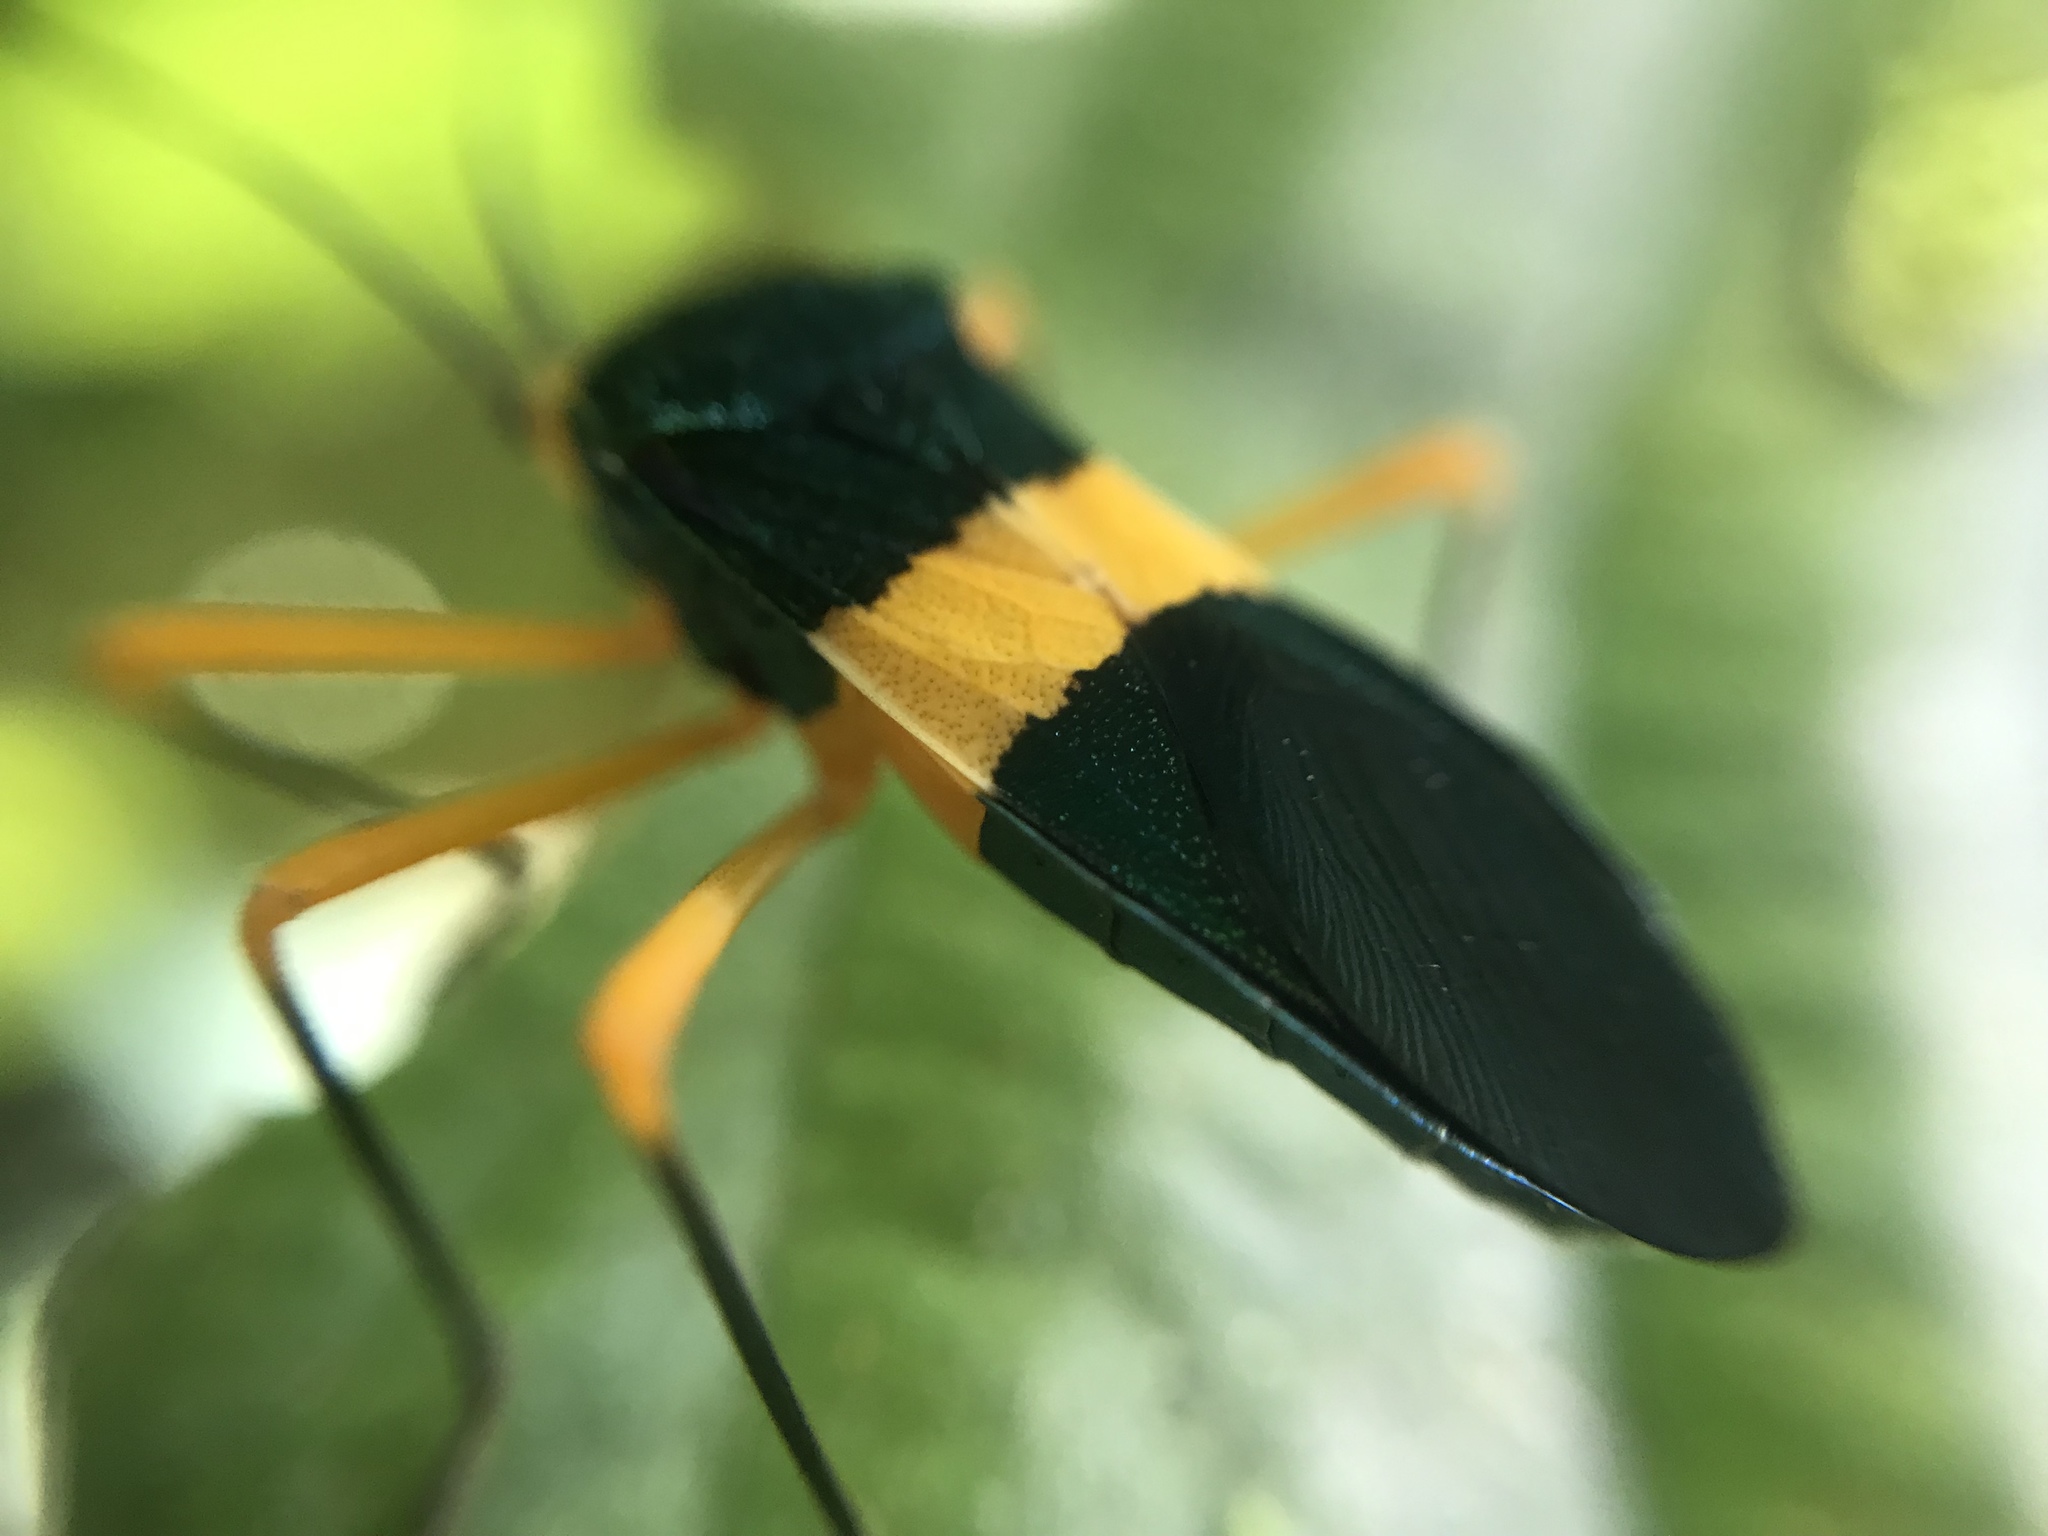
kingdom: Animalia
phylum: Arthropoda
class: Insecta
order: Hemiptera
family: Coreidae
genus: Paryphes
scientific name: Paryphes blandus
